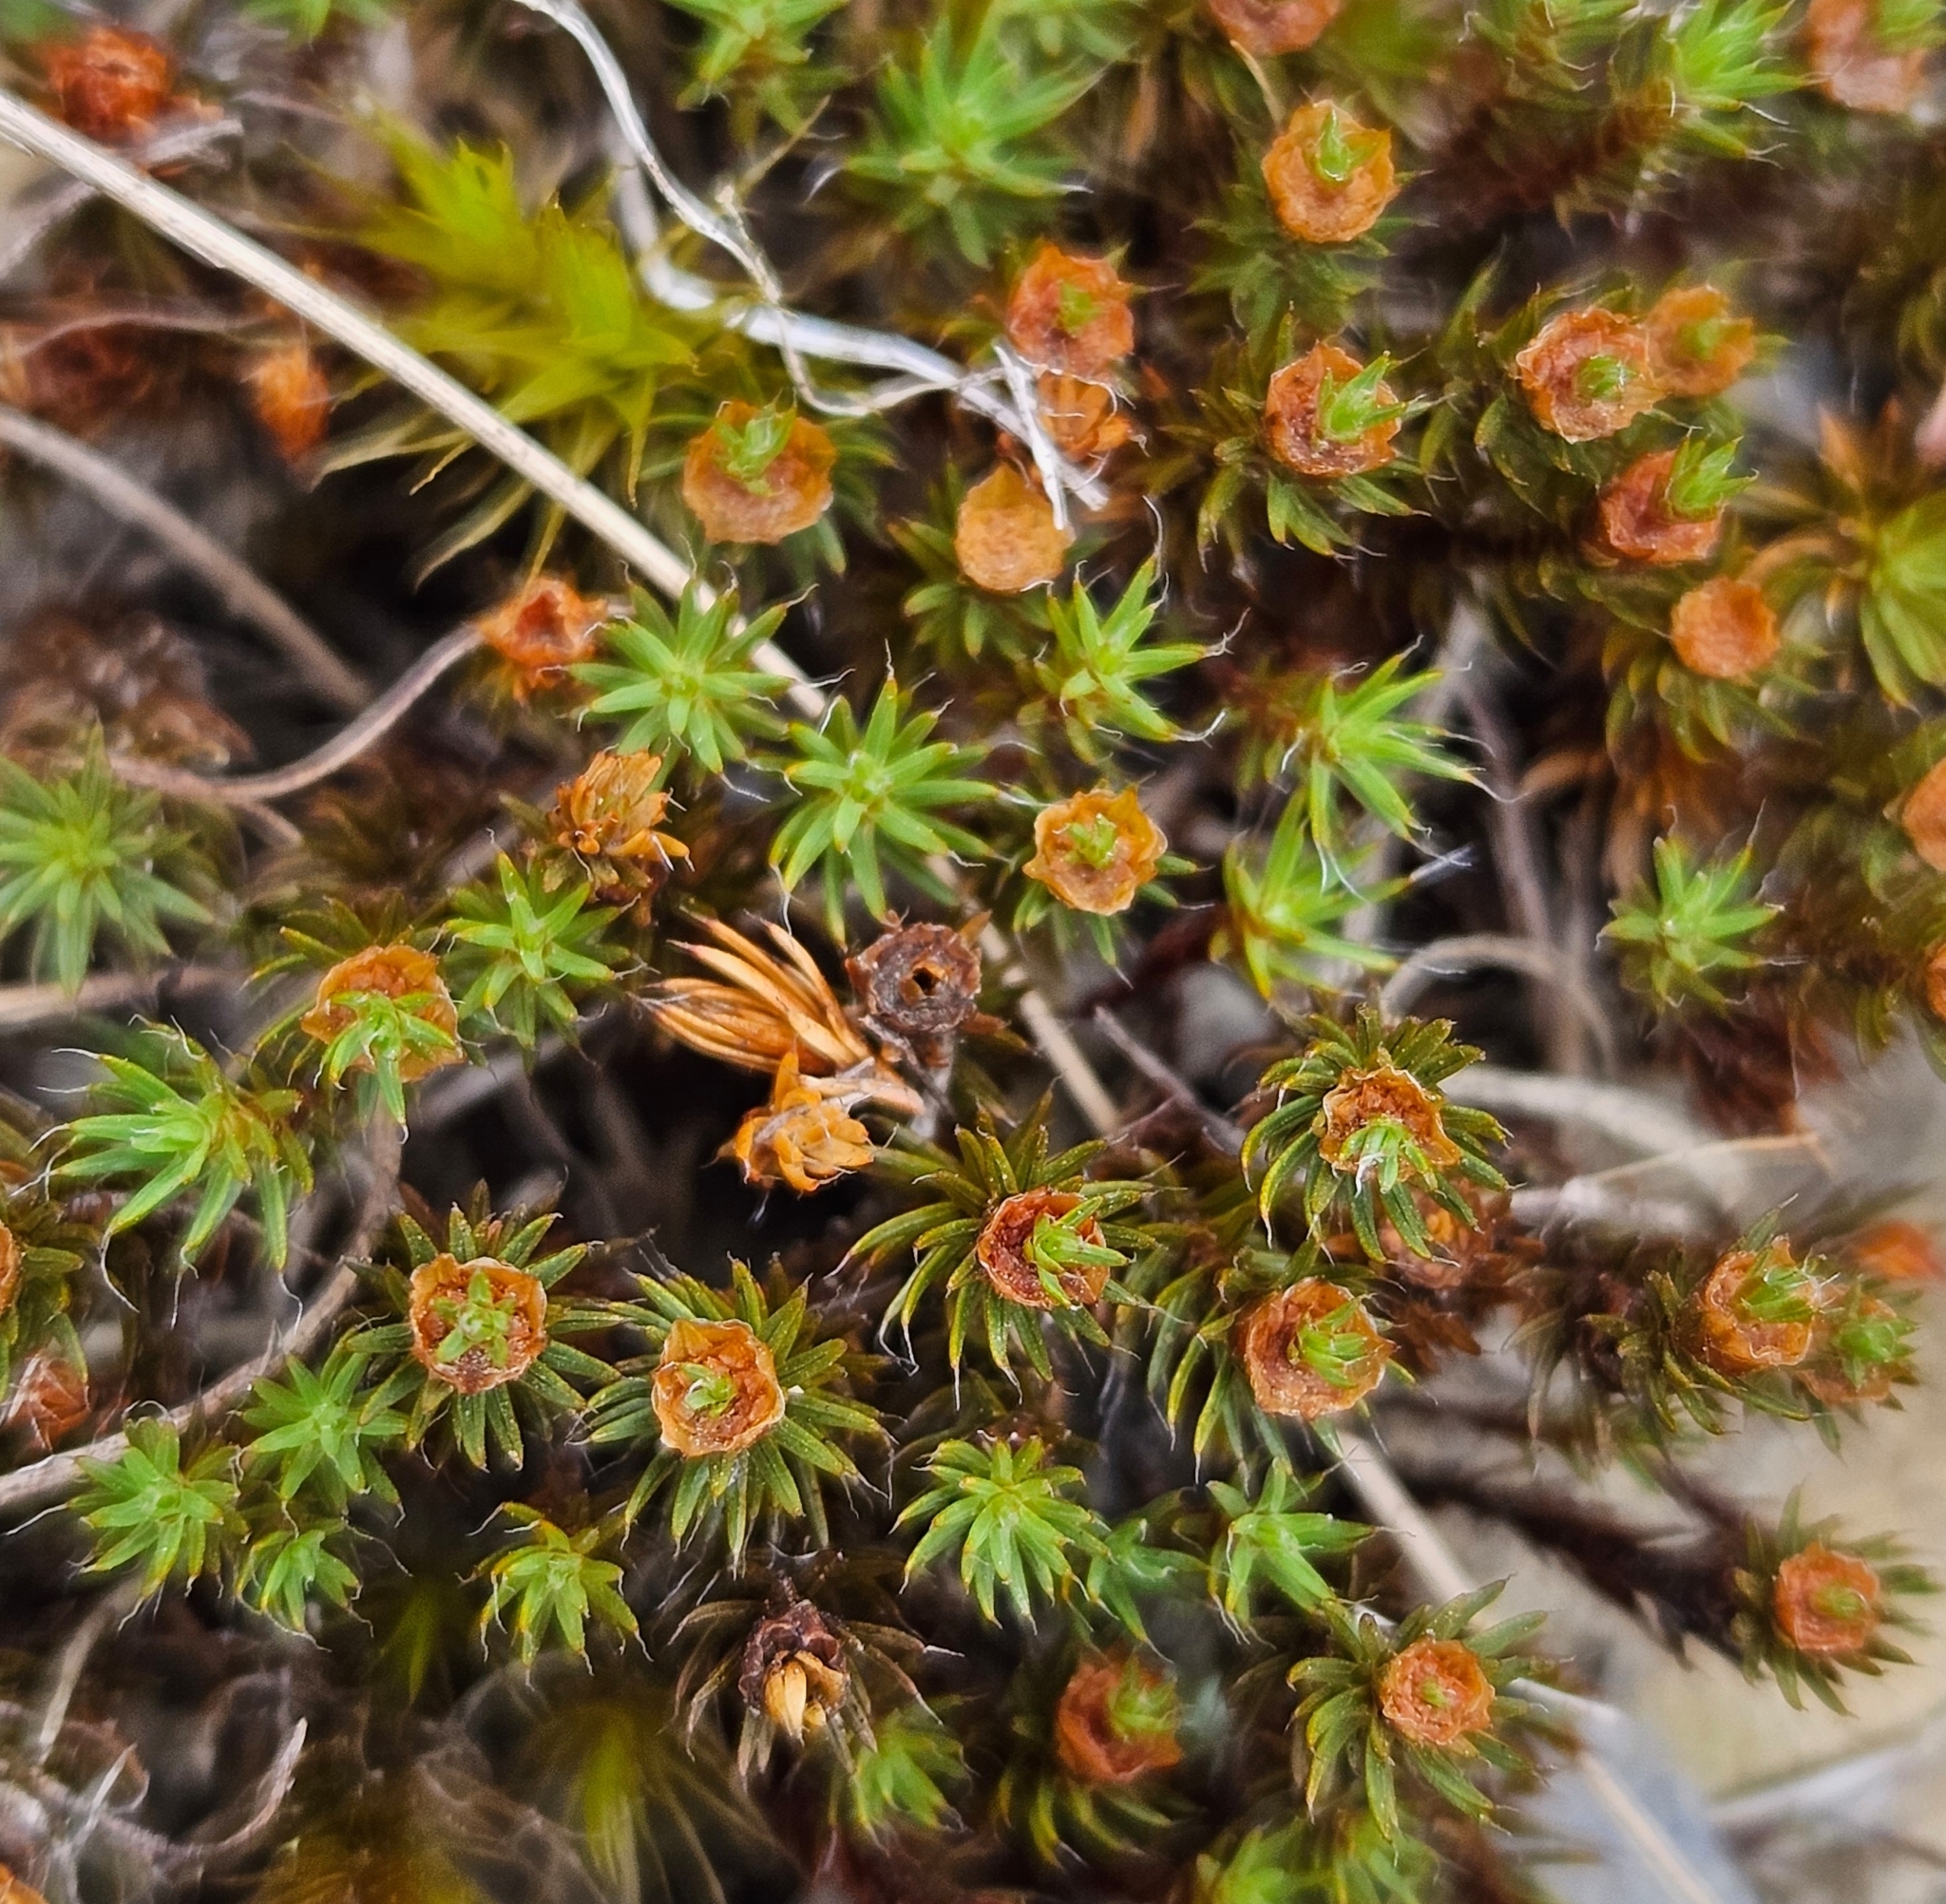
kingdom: Plantae
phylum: Bryophyta
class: Polytrichopsida
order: Polytrichales
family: Polytrichaceae
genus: Polytrichum
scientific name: Polytrichum piliferum
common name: Bristly haircap
